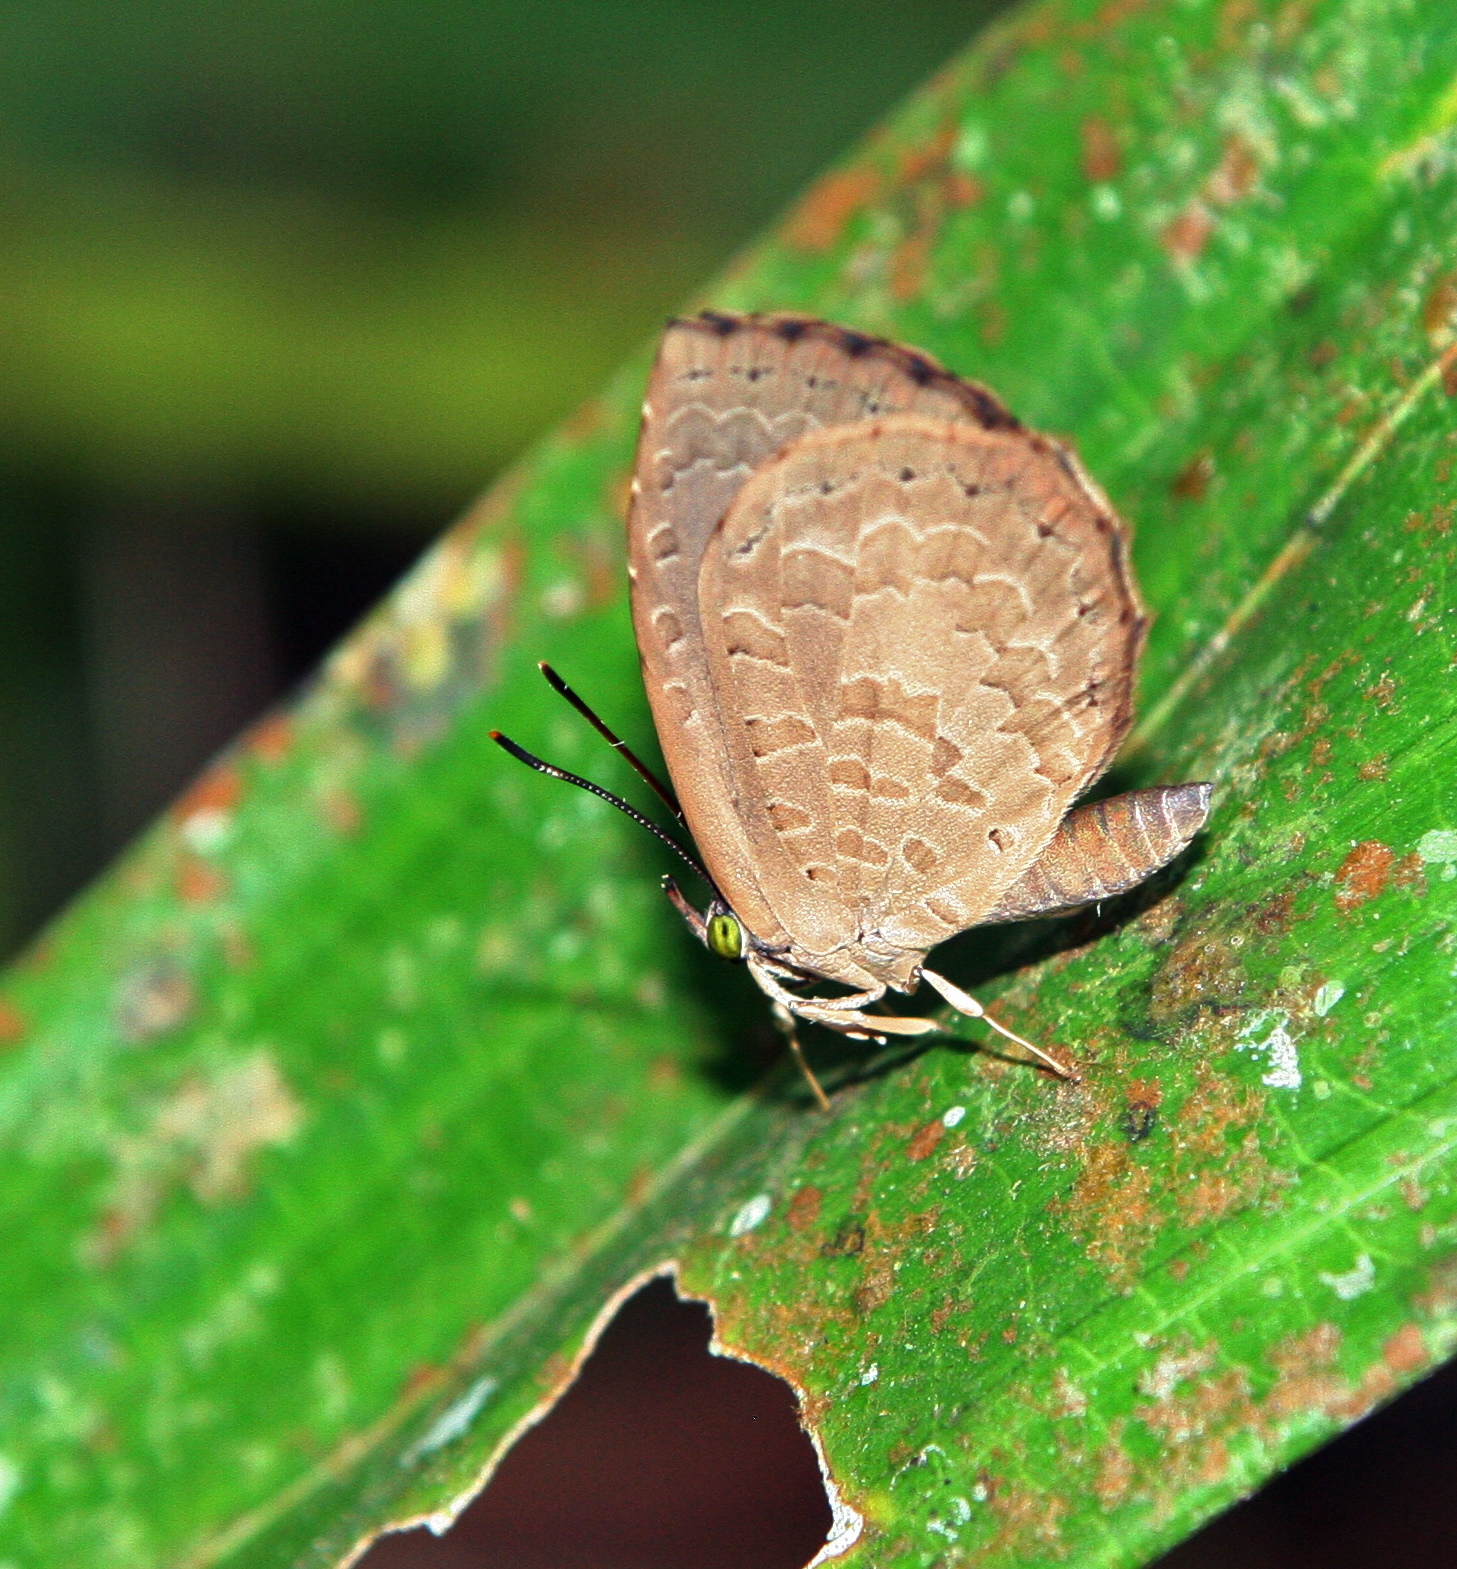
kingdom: Animalia
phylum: Arthropoda
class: Insecta
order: Lepidoptera
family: Lycaenidae
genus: Miletus
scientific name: Miletus chinensis
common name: Common brownie
